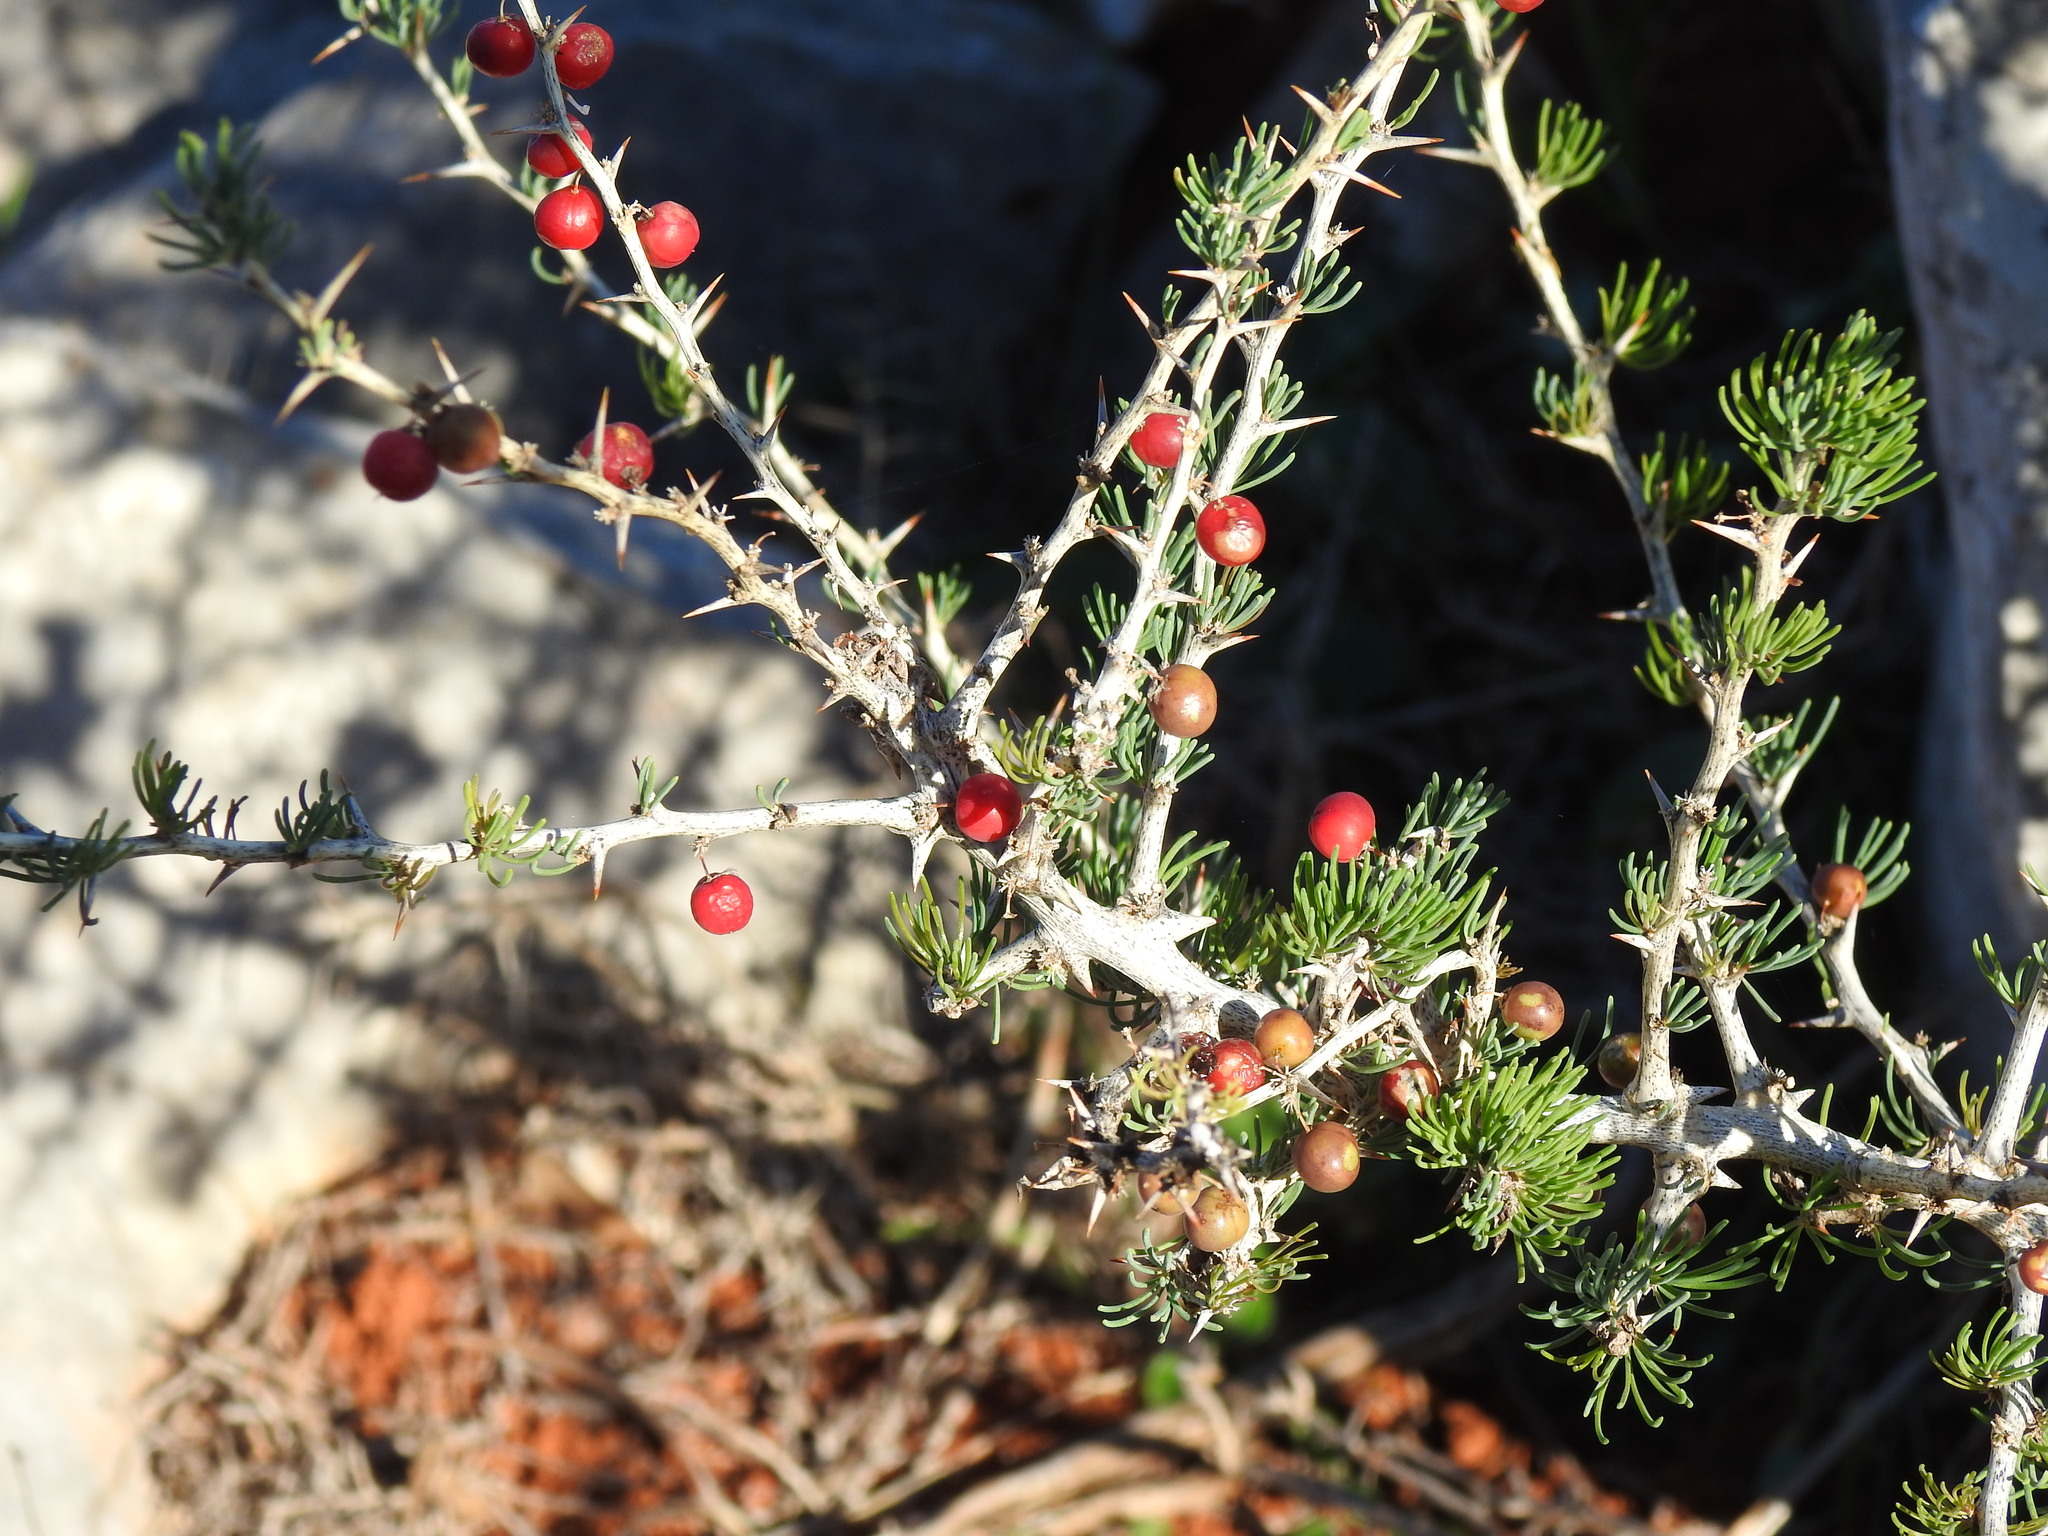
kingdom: Plantae
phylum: Tracheophyta
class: Liliopsida
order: Asparagales
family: Asparagaceae
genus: Asparagus
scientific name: Asparagus albus
